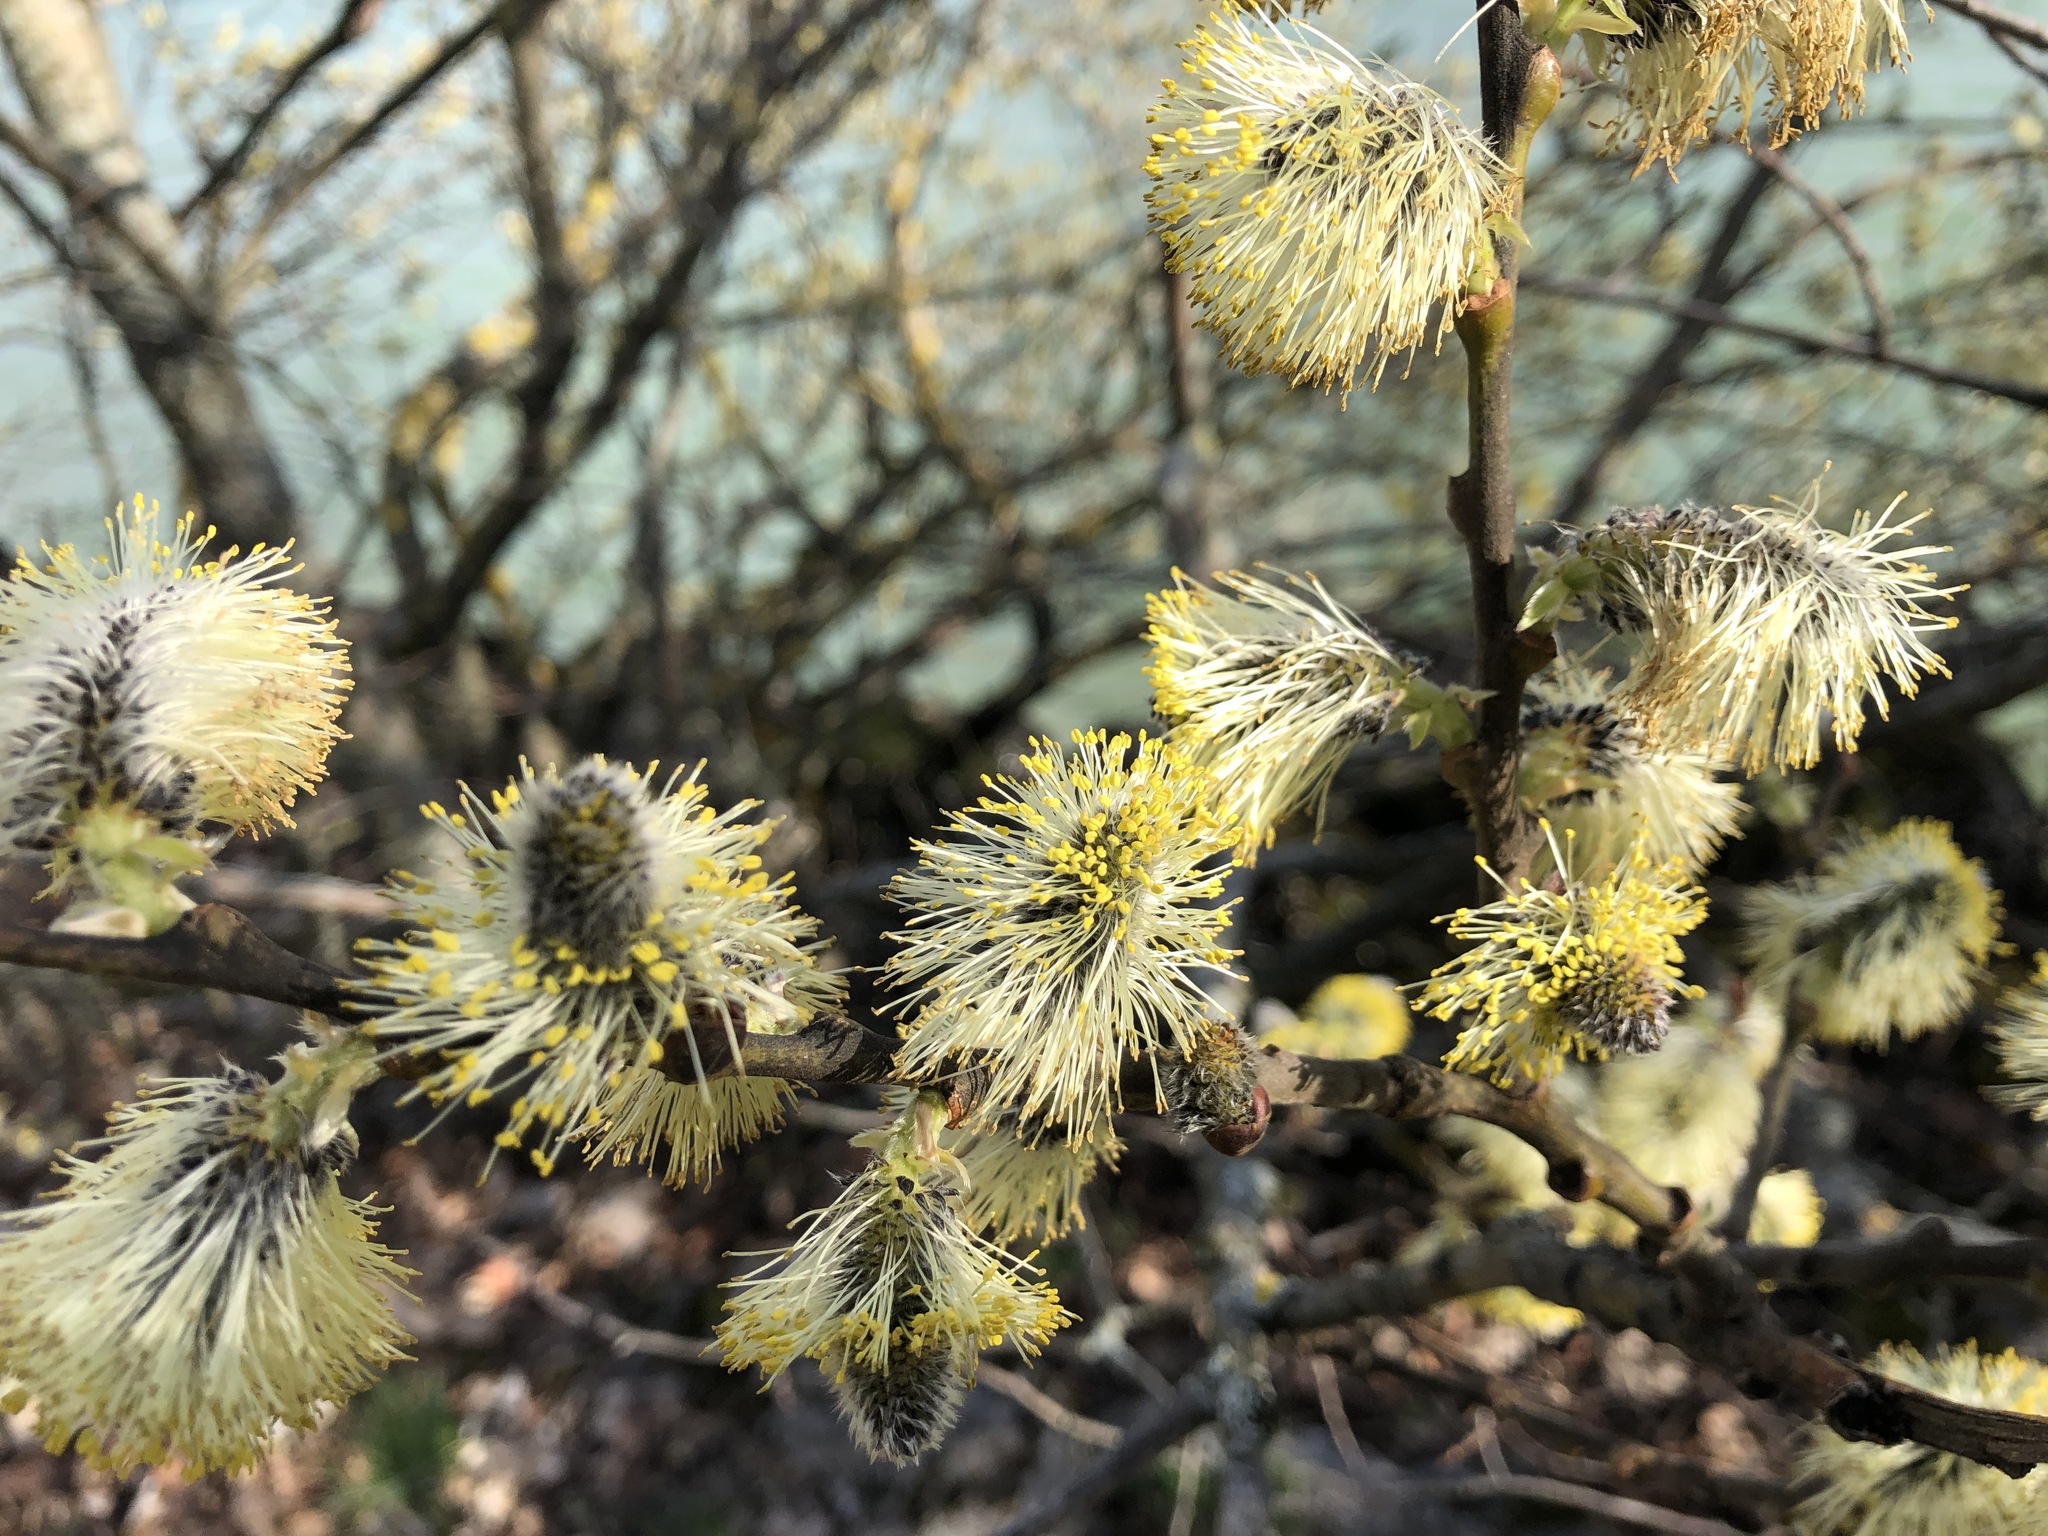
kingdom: Plantae
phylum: Tracheophyta
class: Magnoliopsida
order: Malpighiales
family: Salicaceae
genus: Salix
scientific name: Salix caprea
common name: Goat willow
